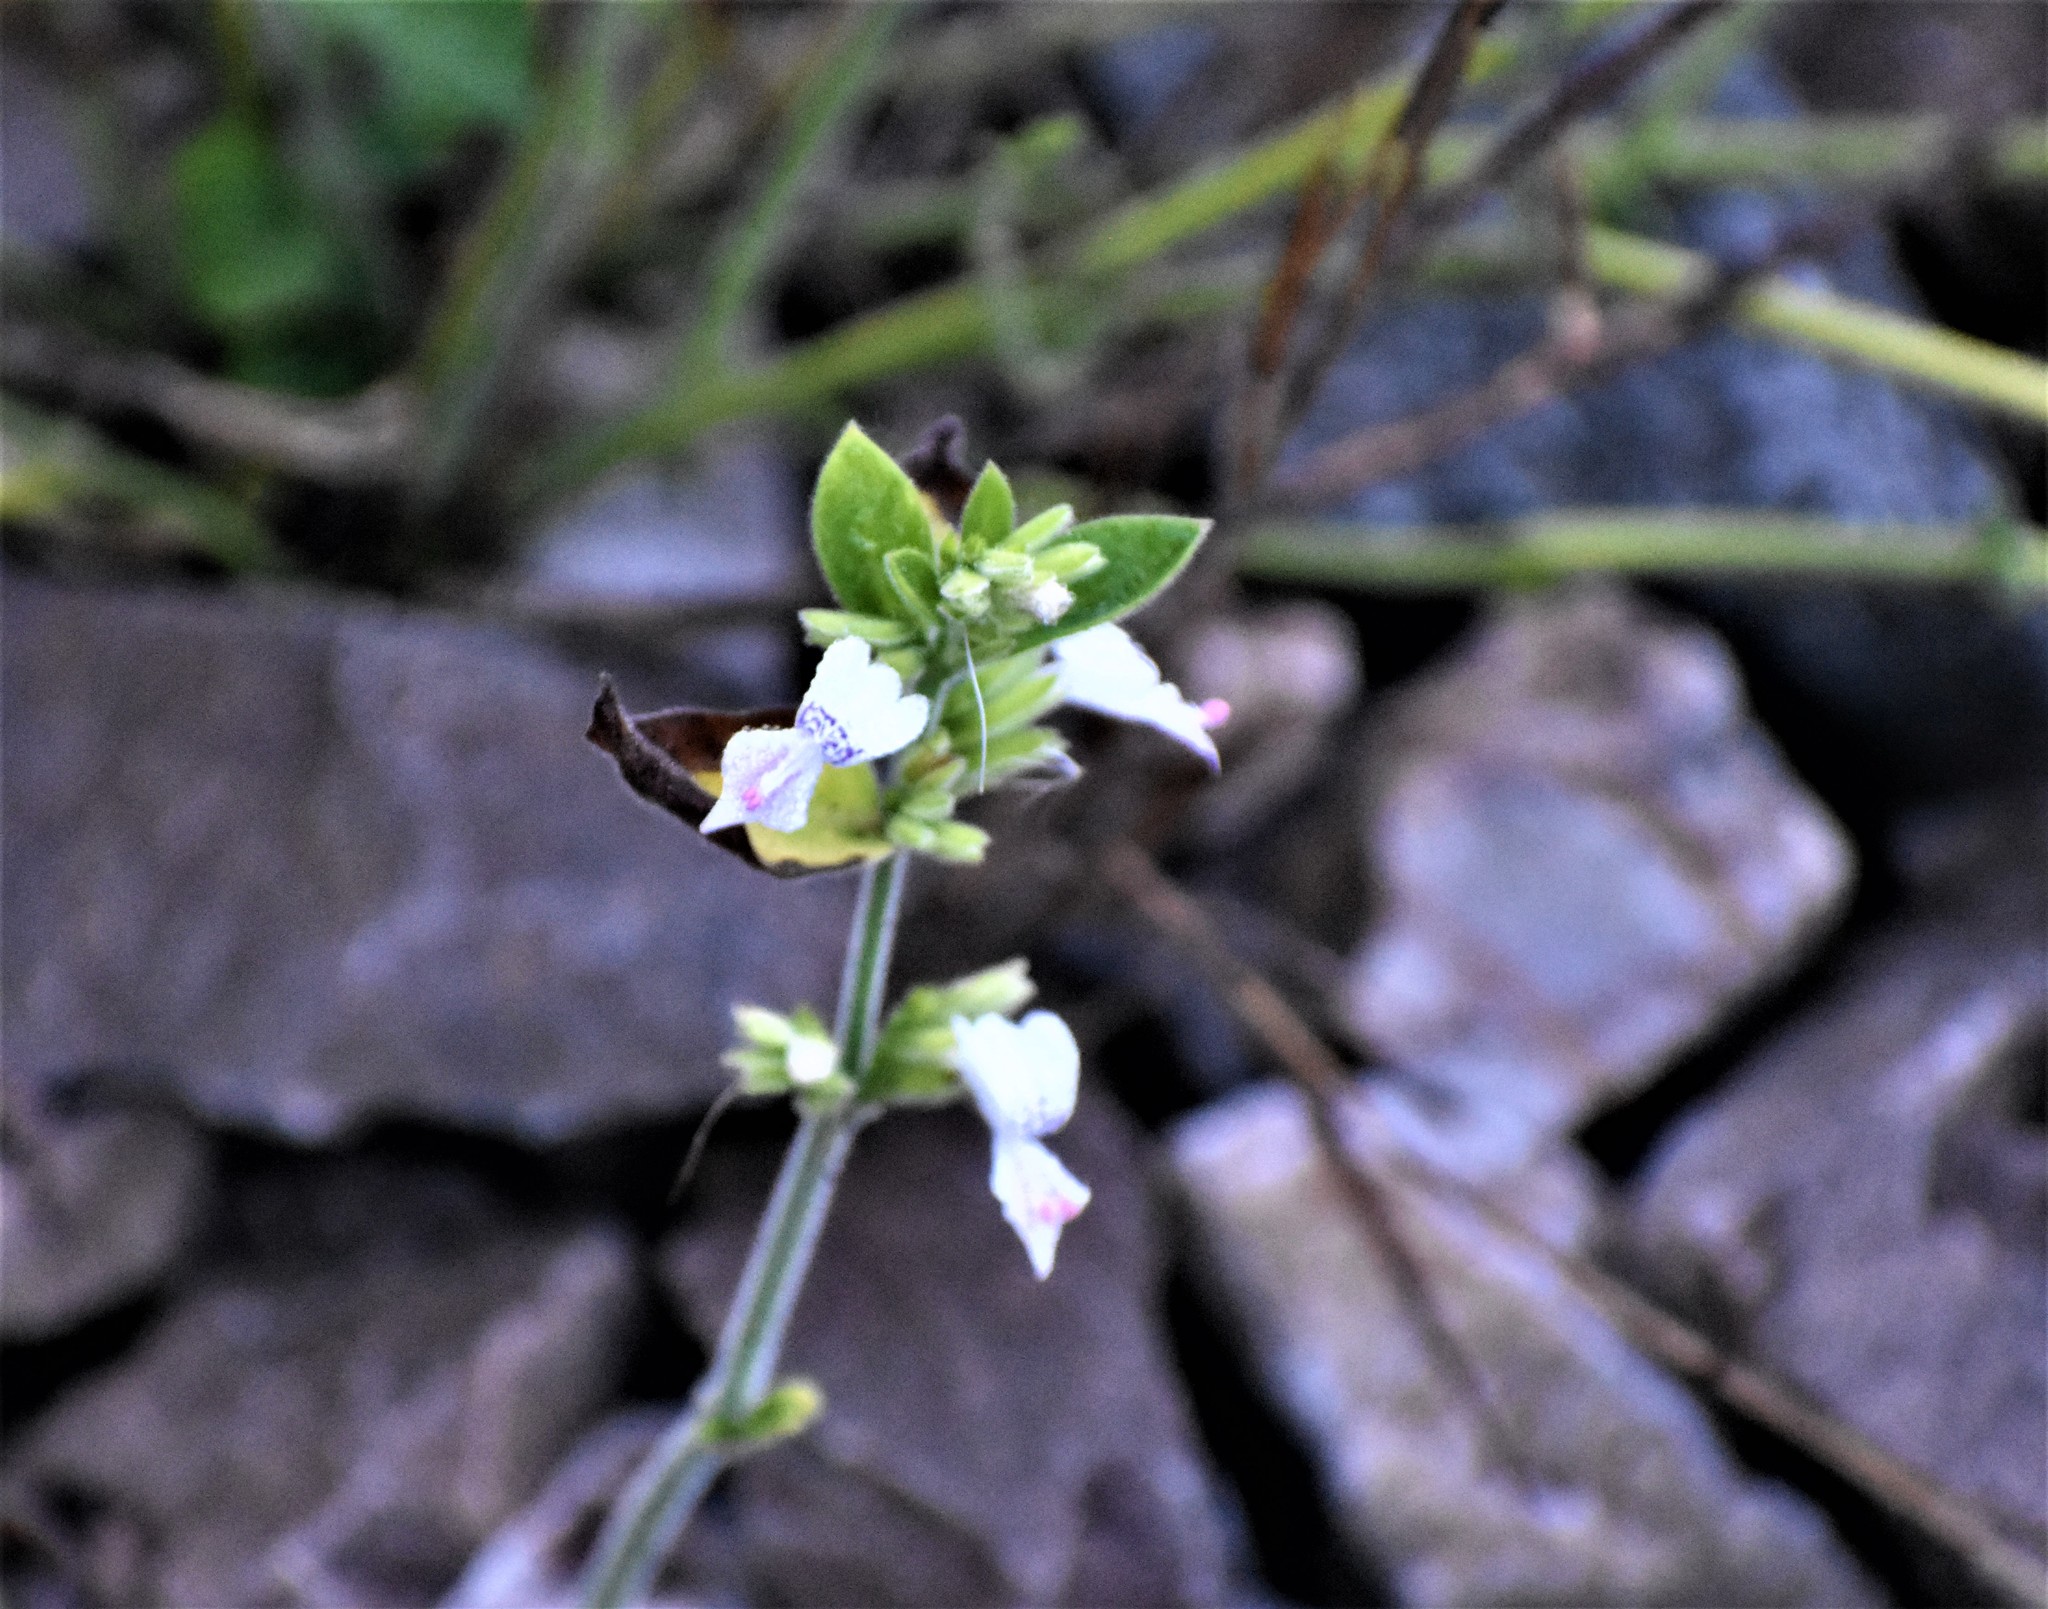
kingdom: Plantae
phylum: Tracheophyta
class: Magnoliopsida
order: Lamiales
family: Acanthaceae
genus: Hypoestes
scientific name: Hypoestes forskaolii
